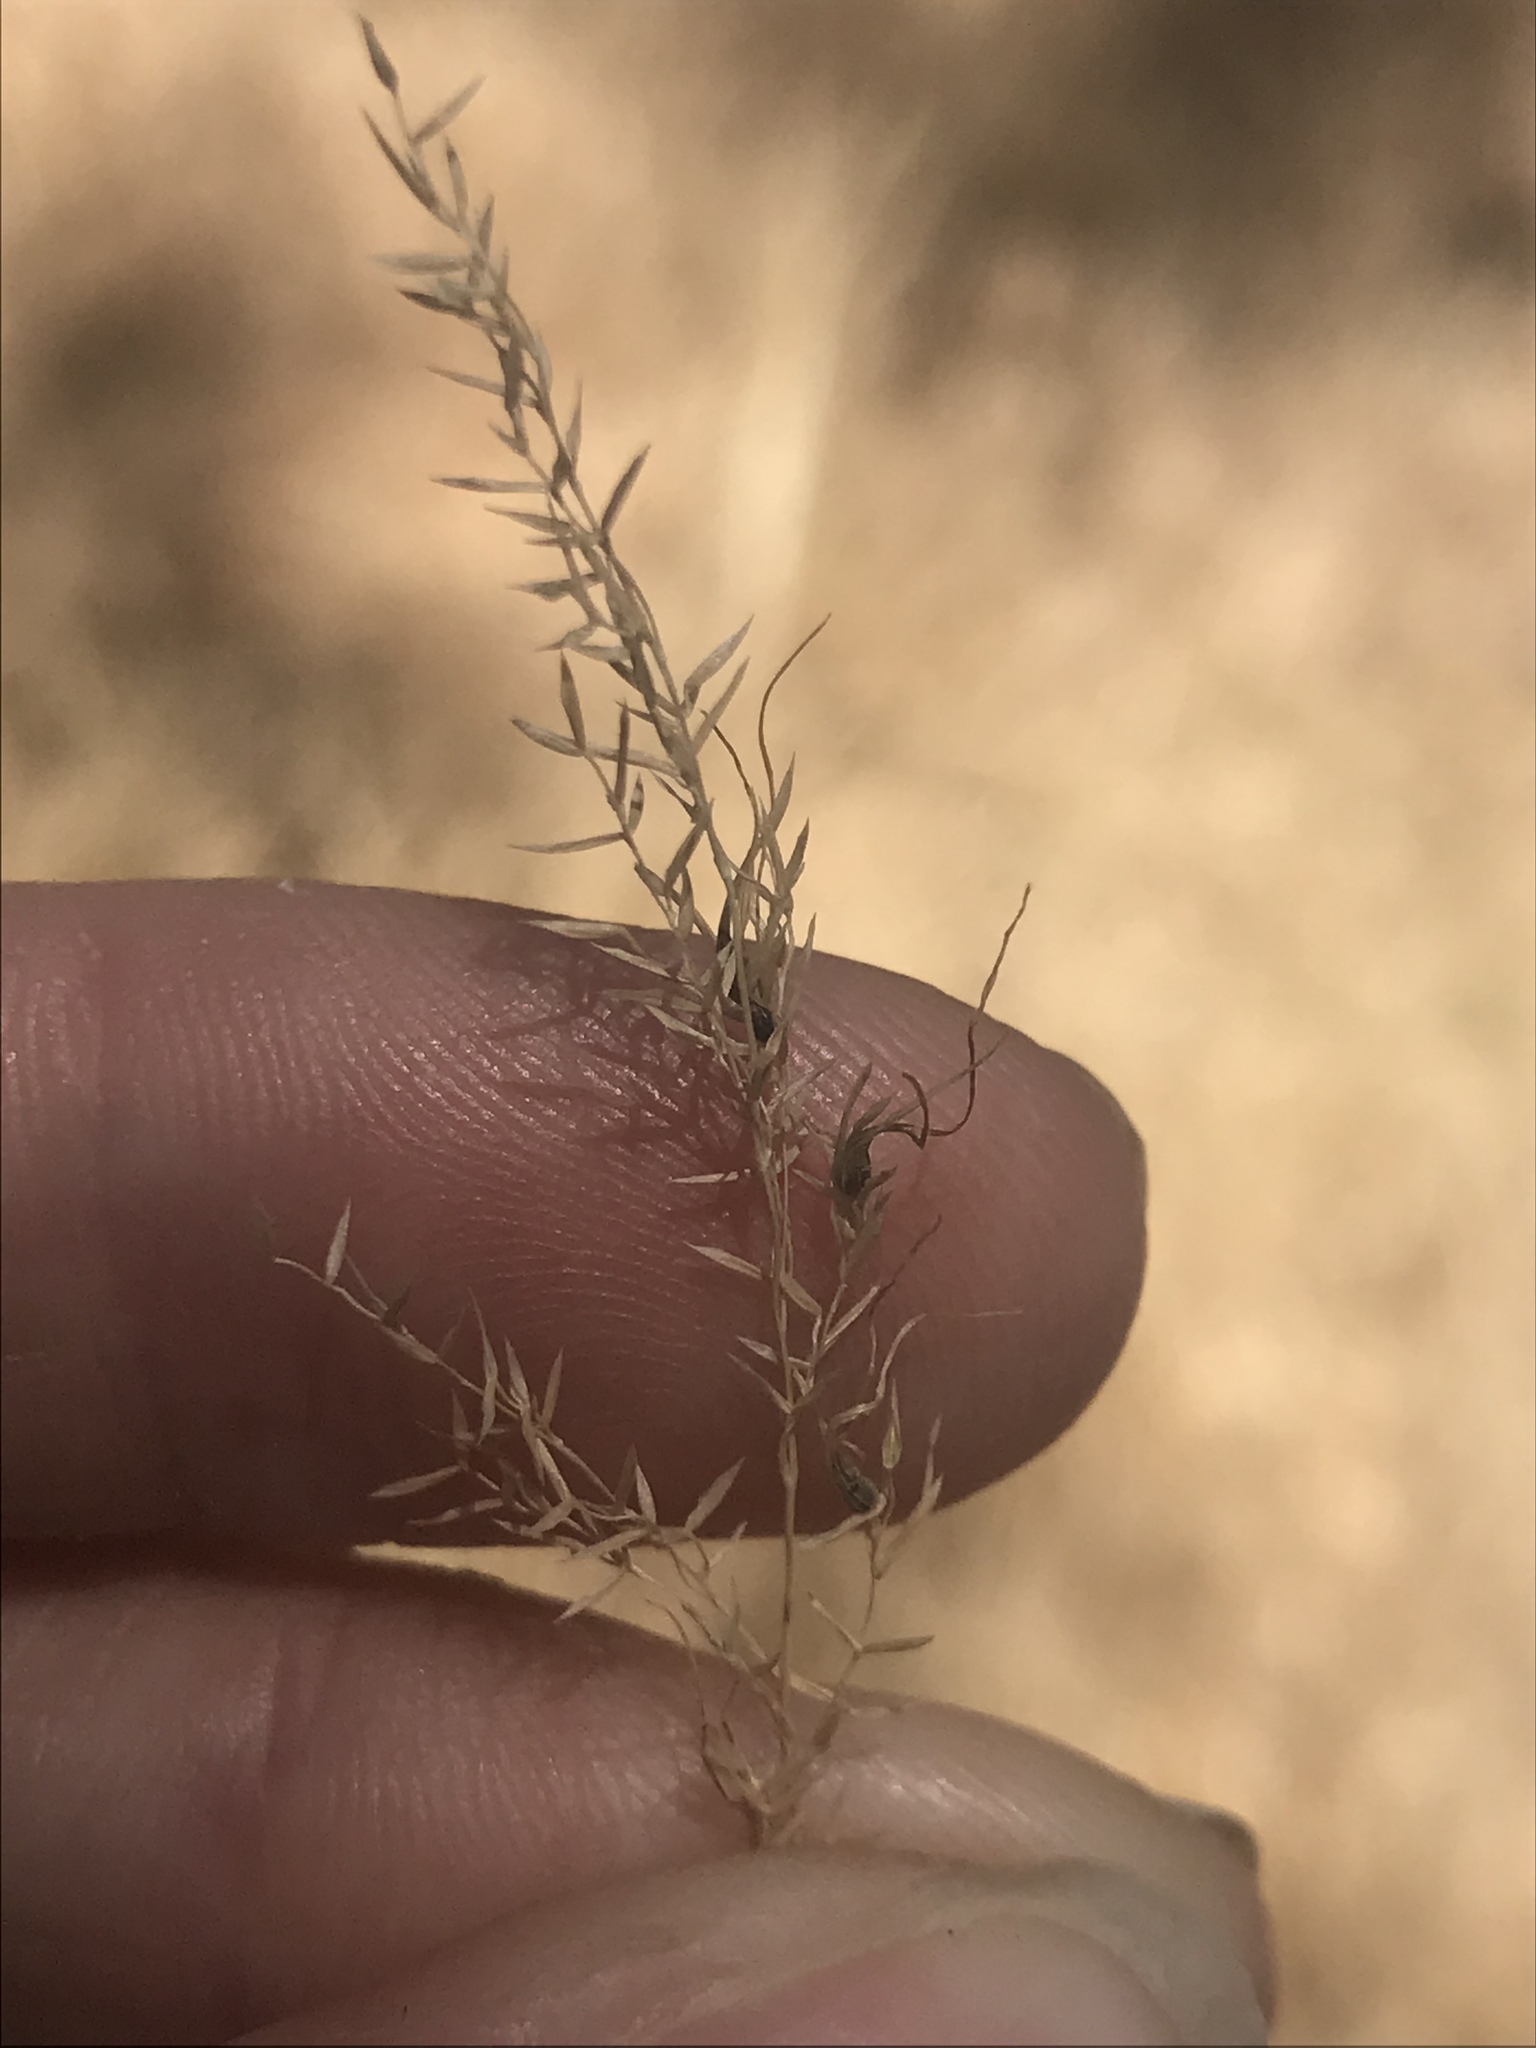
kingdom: Plantae
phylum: Tracheophyta
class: Liliopsida
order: Poales
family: Poaceae
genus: Poa
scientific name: Poa bulbosa
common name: Bulbous bluegrass
